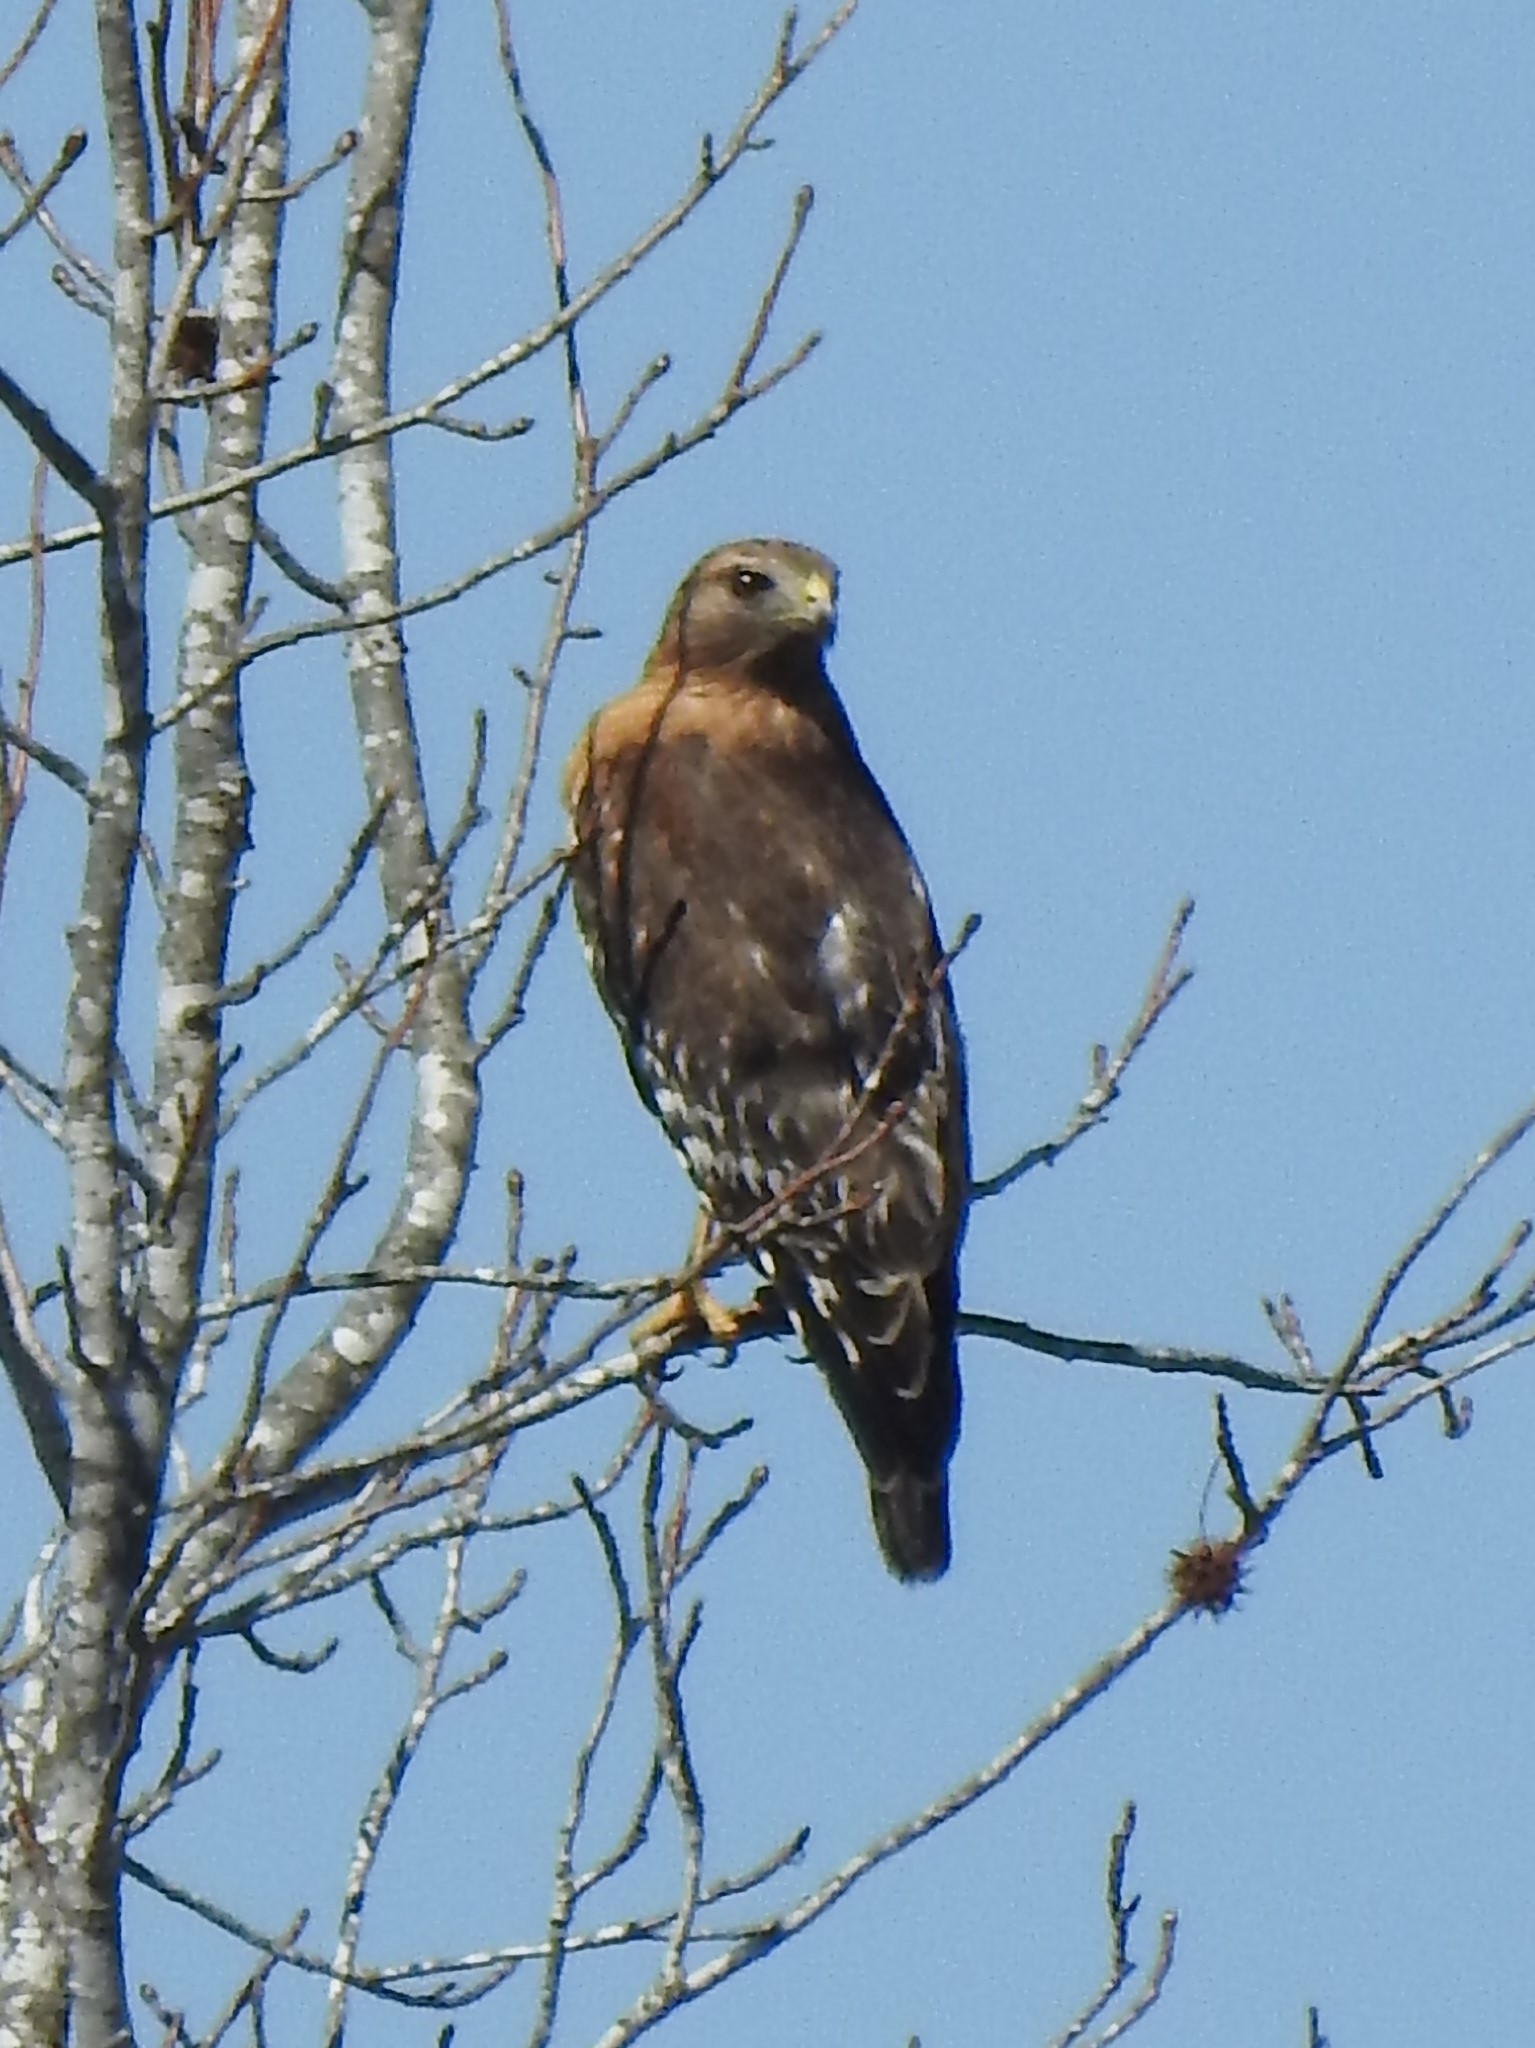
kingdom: Animalia
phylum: Chordata
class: Aves
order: Accipitriformes
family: Accipitridae
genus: Buteo
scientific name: Buteo lineatus
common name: Red-shouldered hawk
